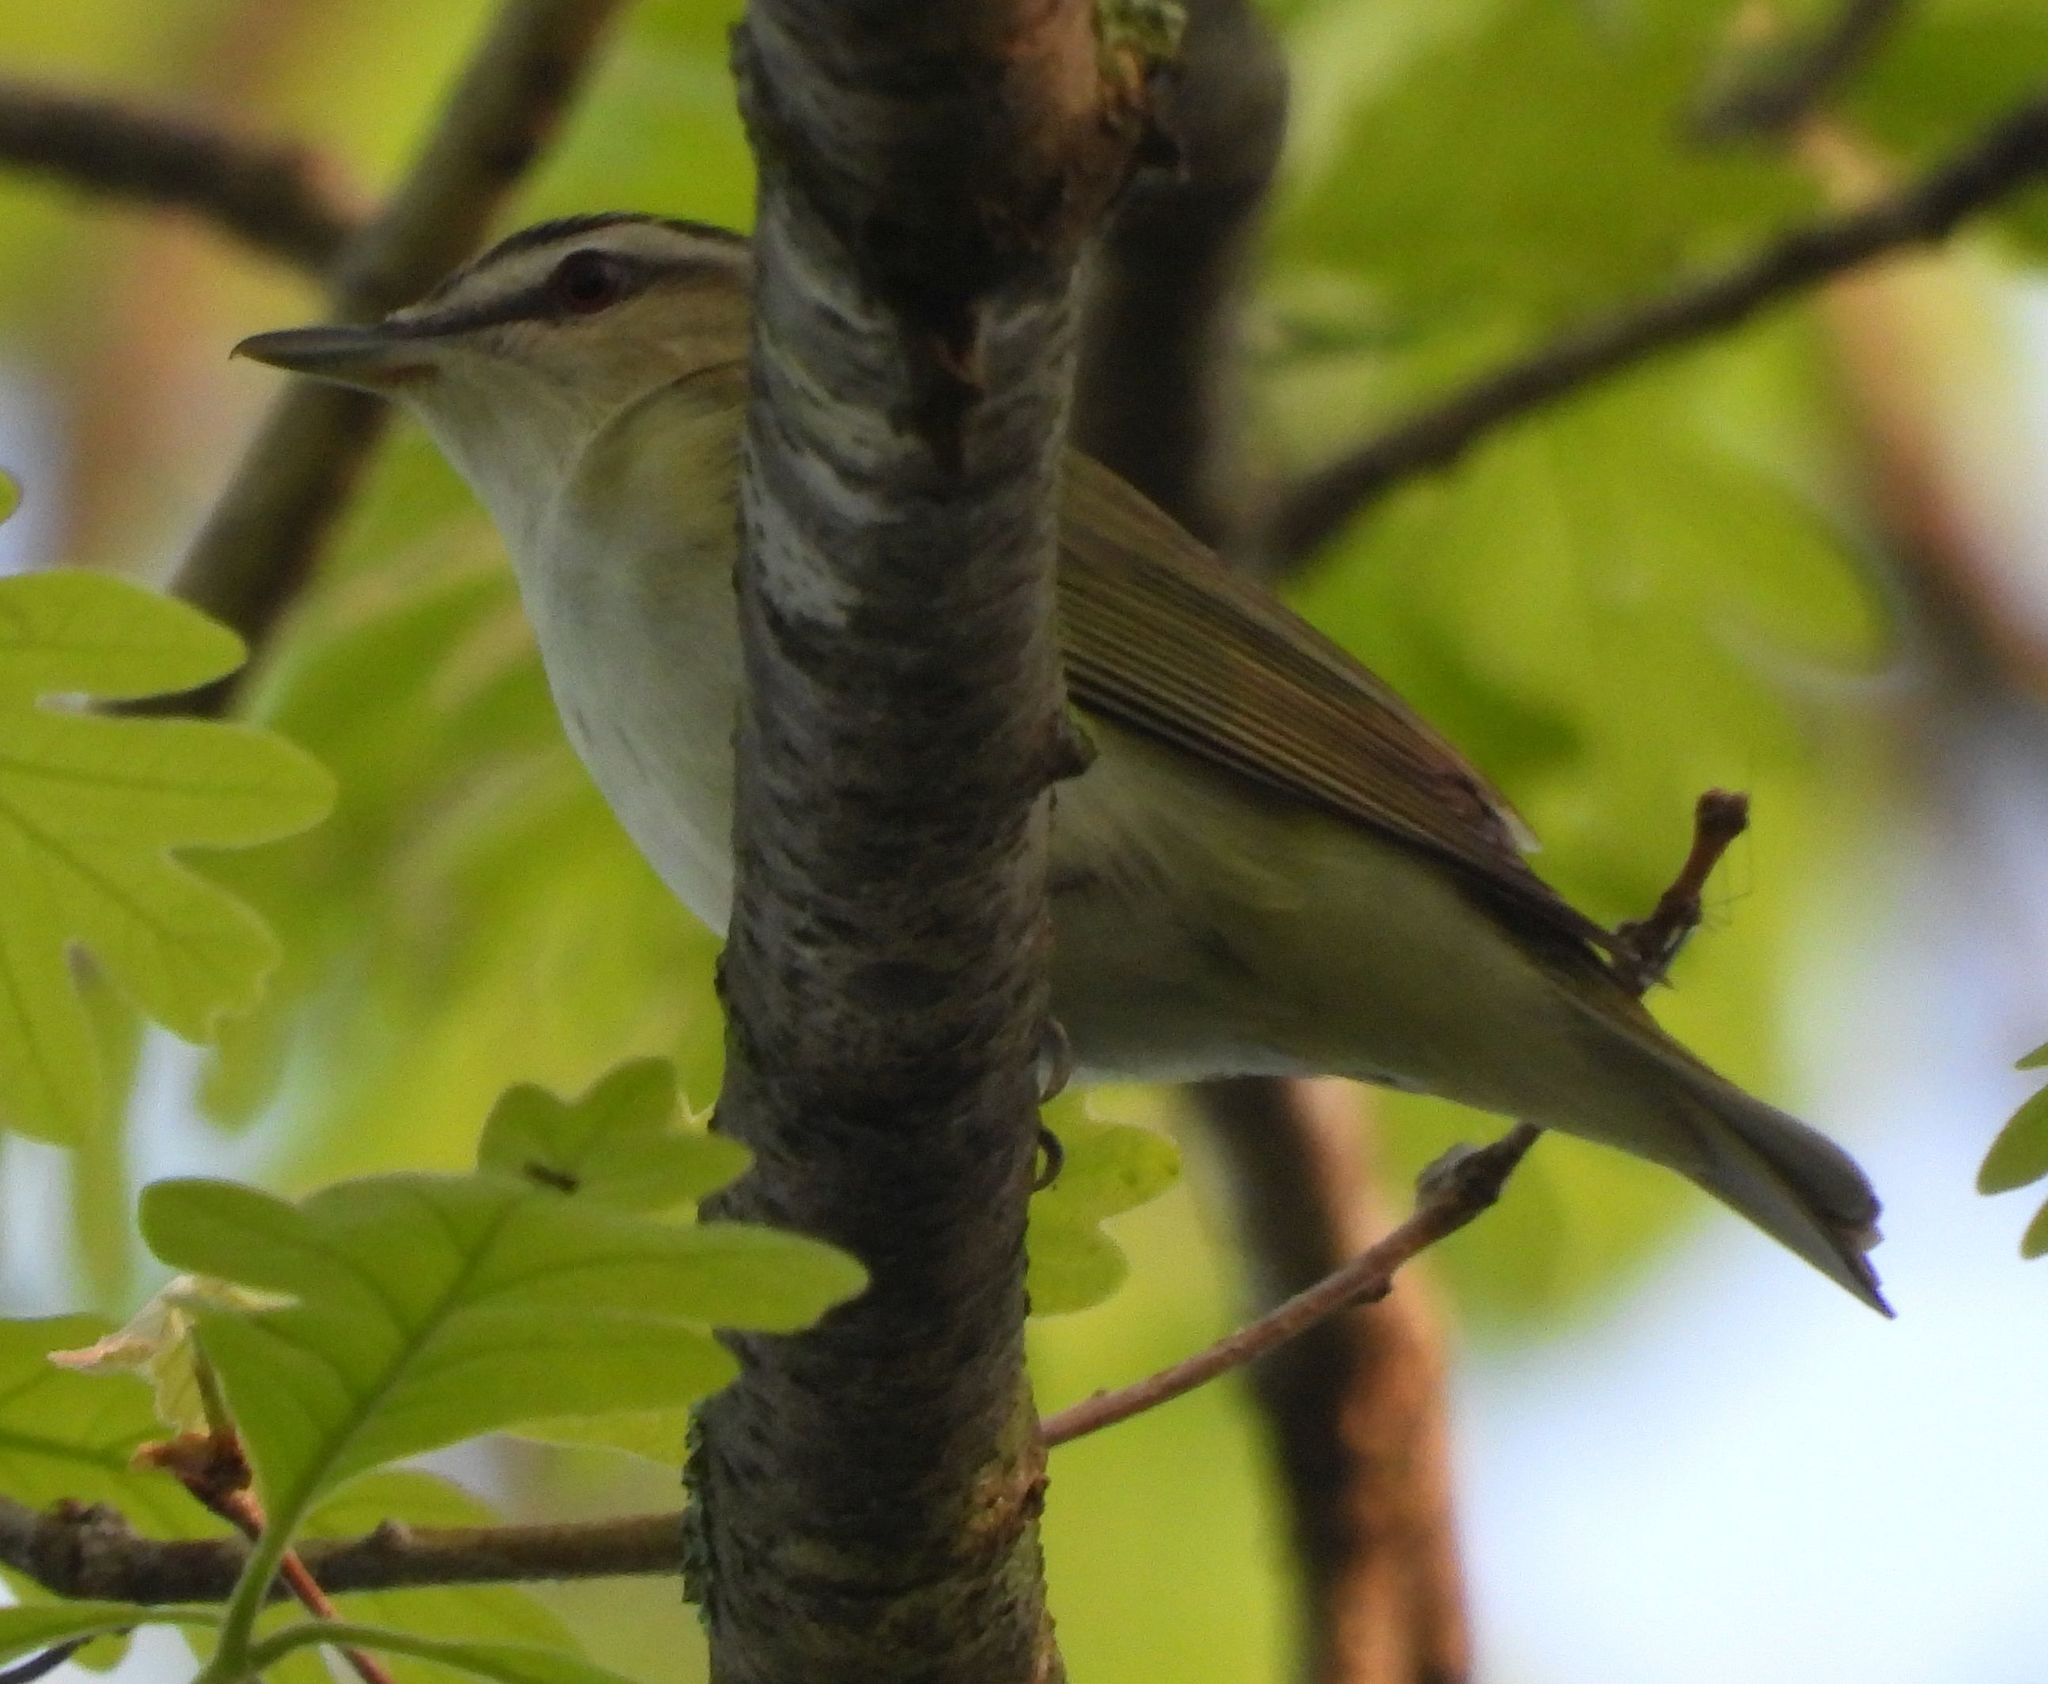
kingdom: Animalia
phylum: Chordata
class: Aves
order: Passeriformes
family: Vireonidae
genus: Vireo
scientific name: Vireo olivaceus
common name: Red-eyed vireo
